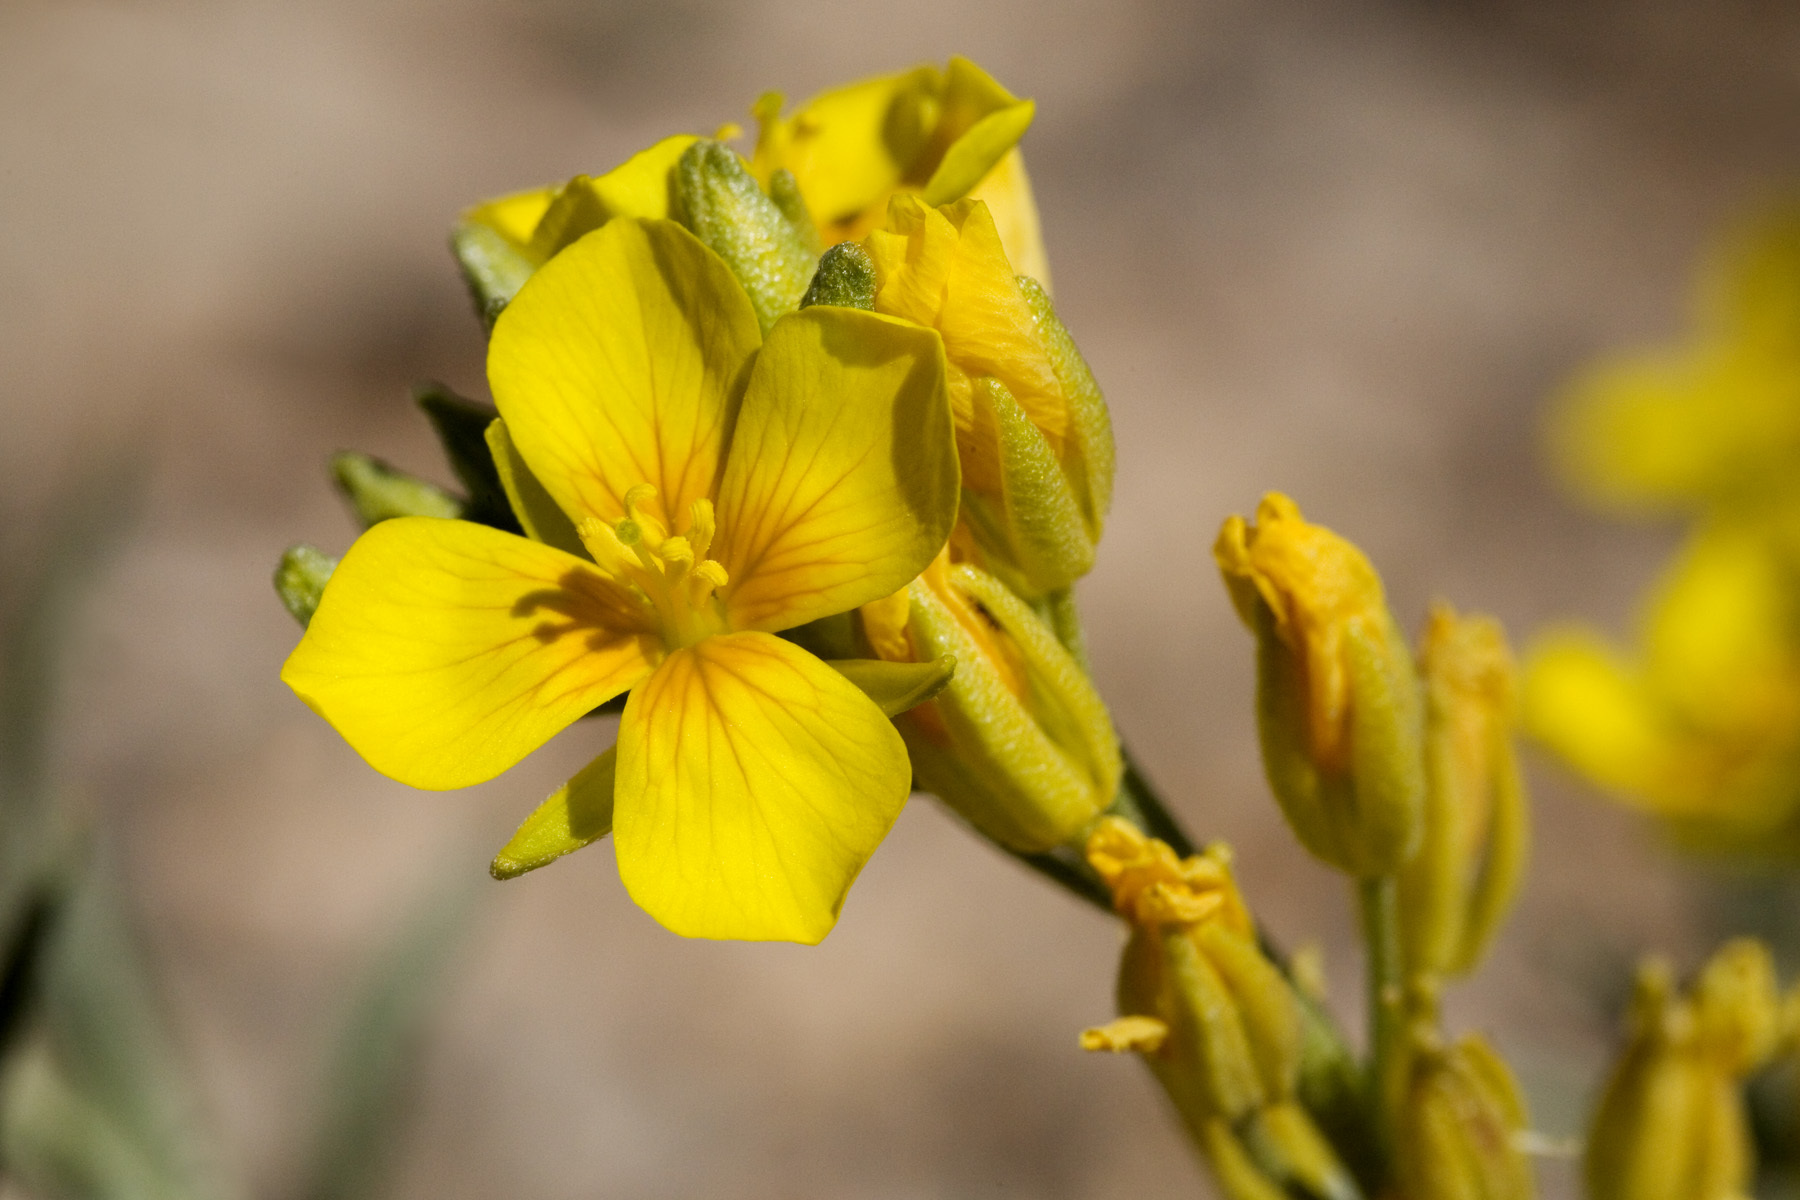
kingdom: Plantae
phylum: Tracheophyta
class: Magnoliopsida
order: Brassicales
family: Brassicaceae
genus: Physaria
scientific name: Physaria fendleri
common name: Fendler's bladderpod
